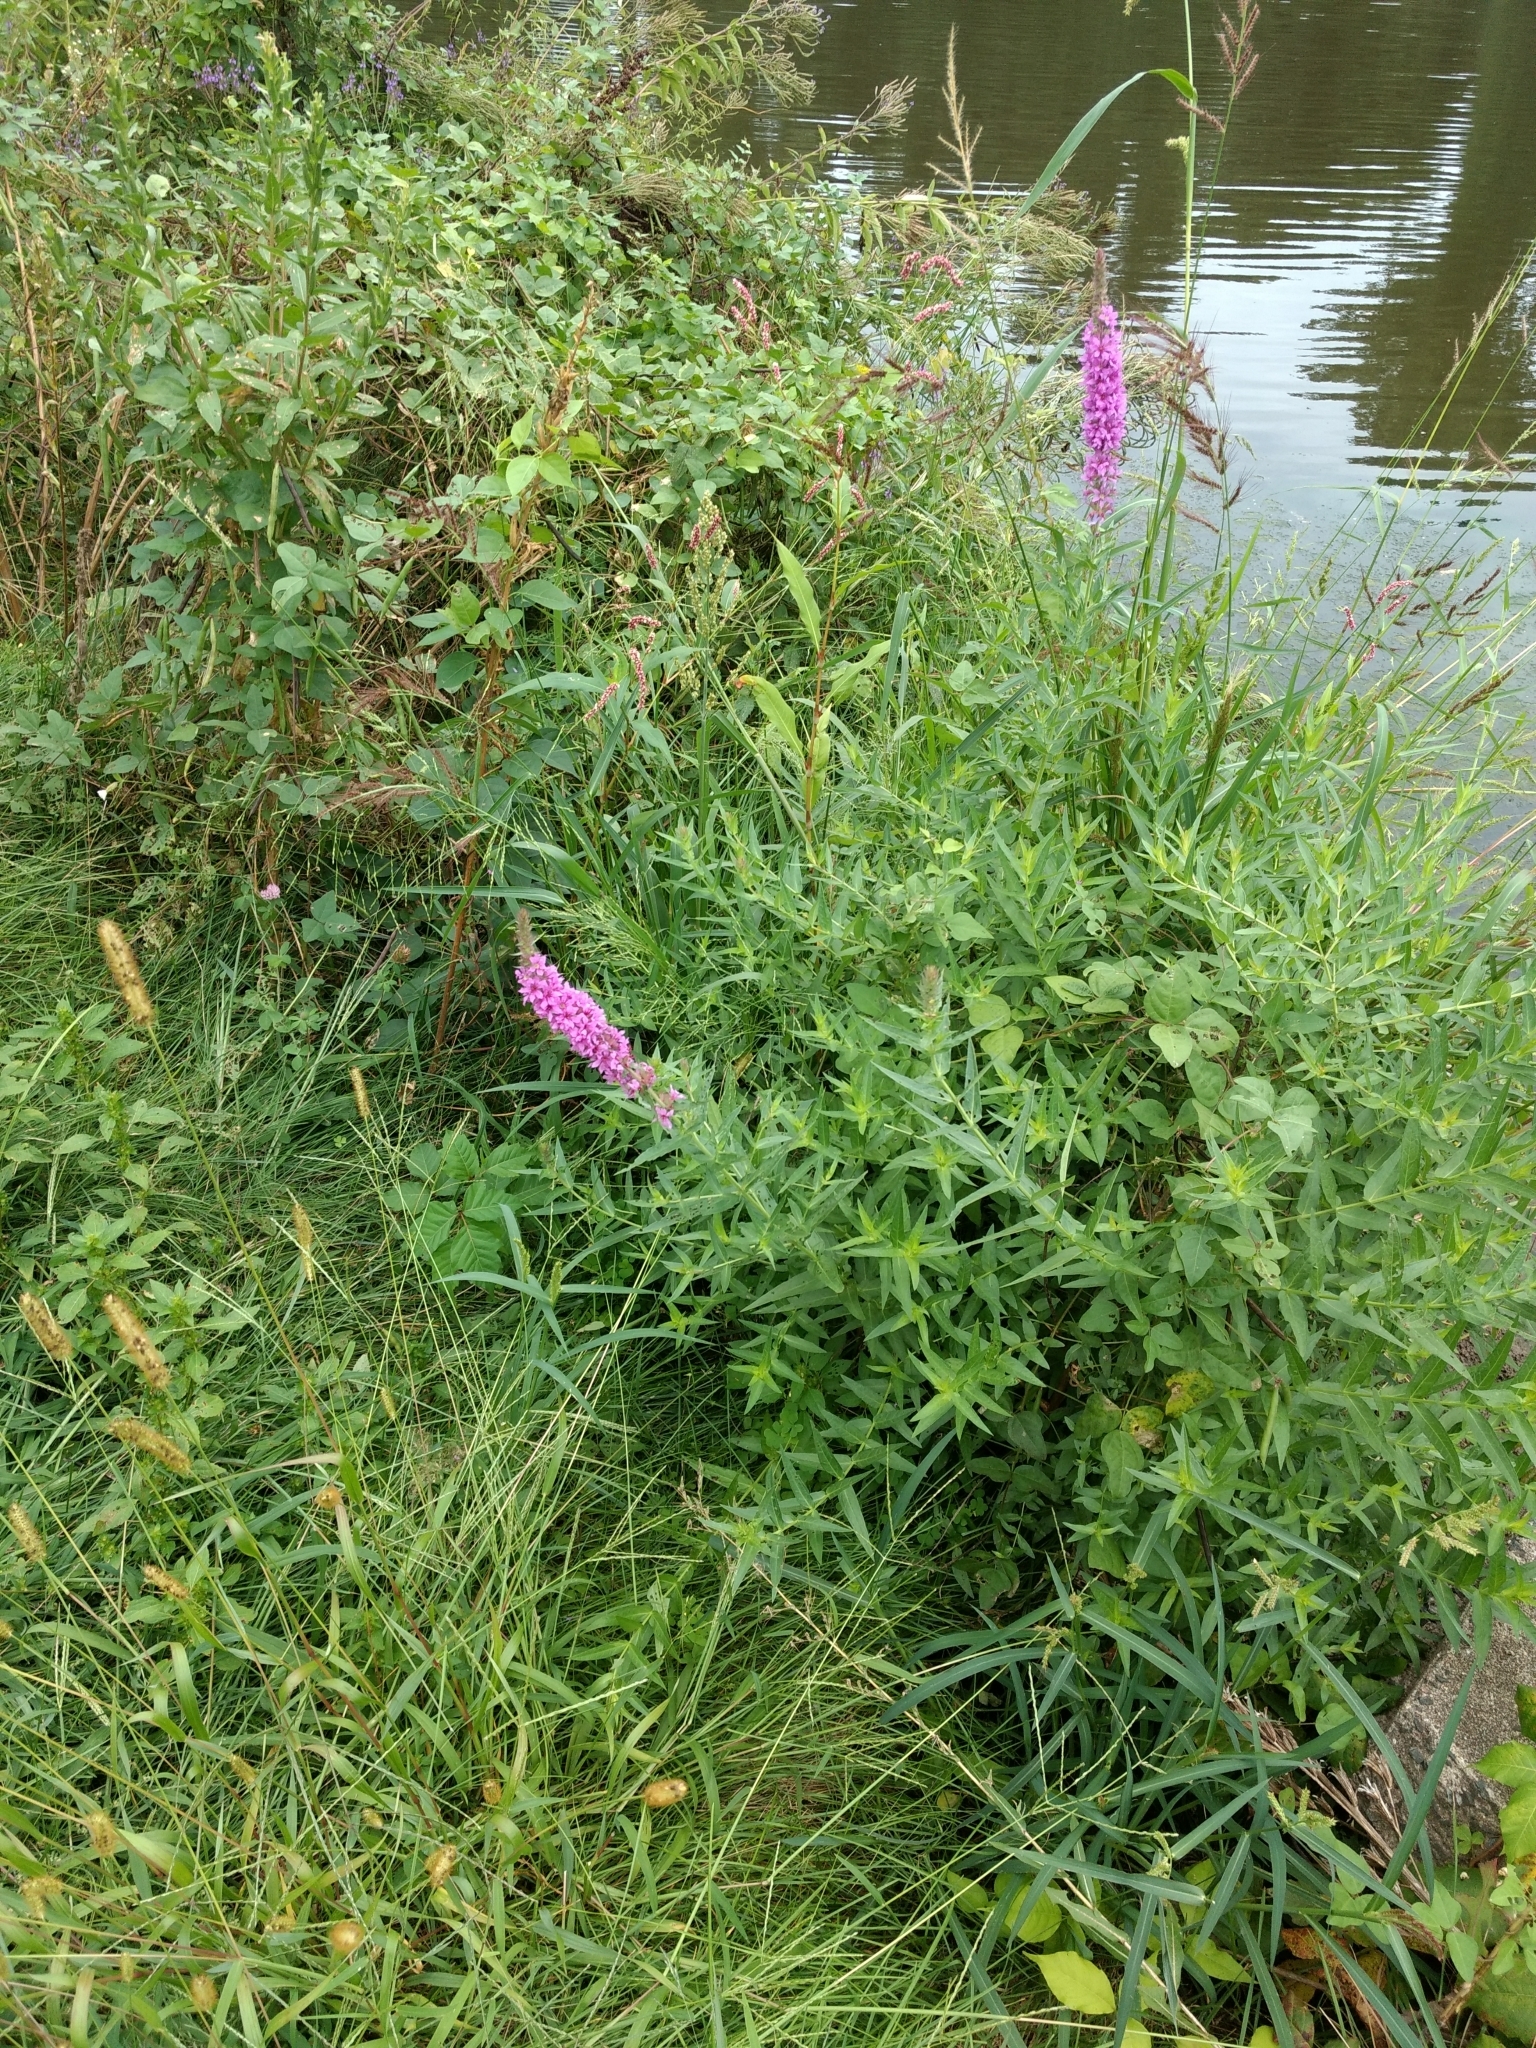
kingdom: Plantae
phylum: Tracheophyta
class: Magnoliopsida
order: Myrtales
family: Lythraceae
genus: Lythrum
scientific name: Lythrum salicaria
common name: Purple loosestrife
